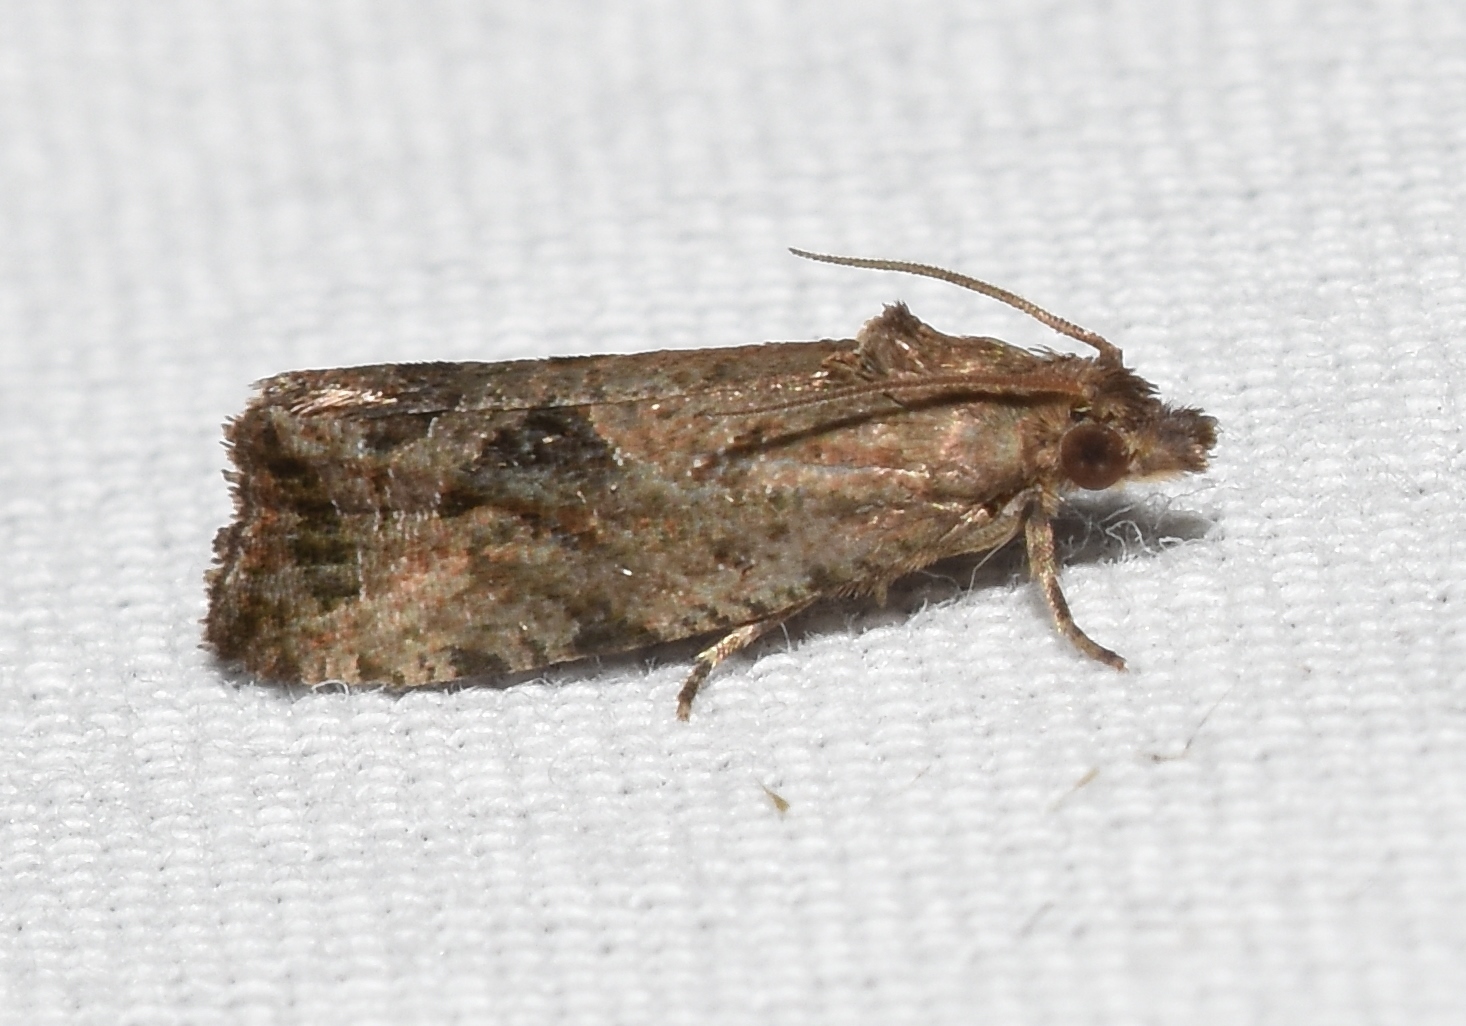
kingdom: Animalia
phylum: Arthropoda
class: Insecta
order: Lepidoptera
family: Tortricidae
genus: Endothenia
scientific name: Endothenia nubilana
